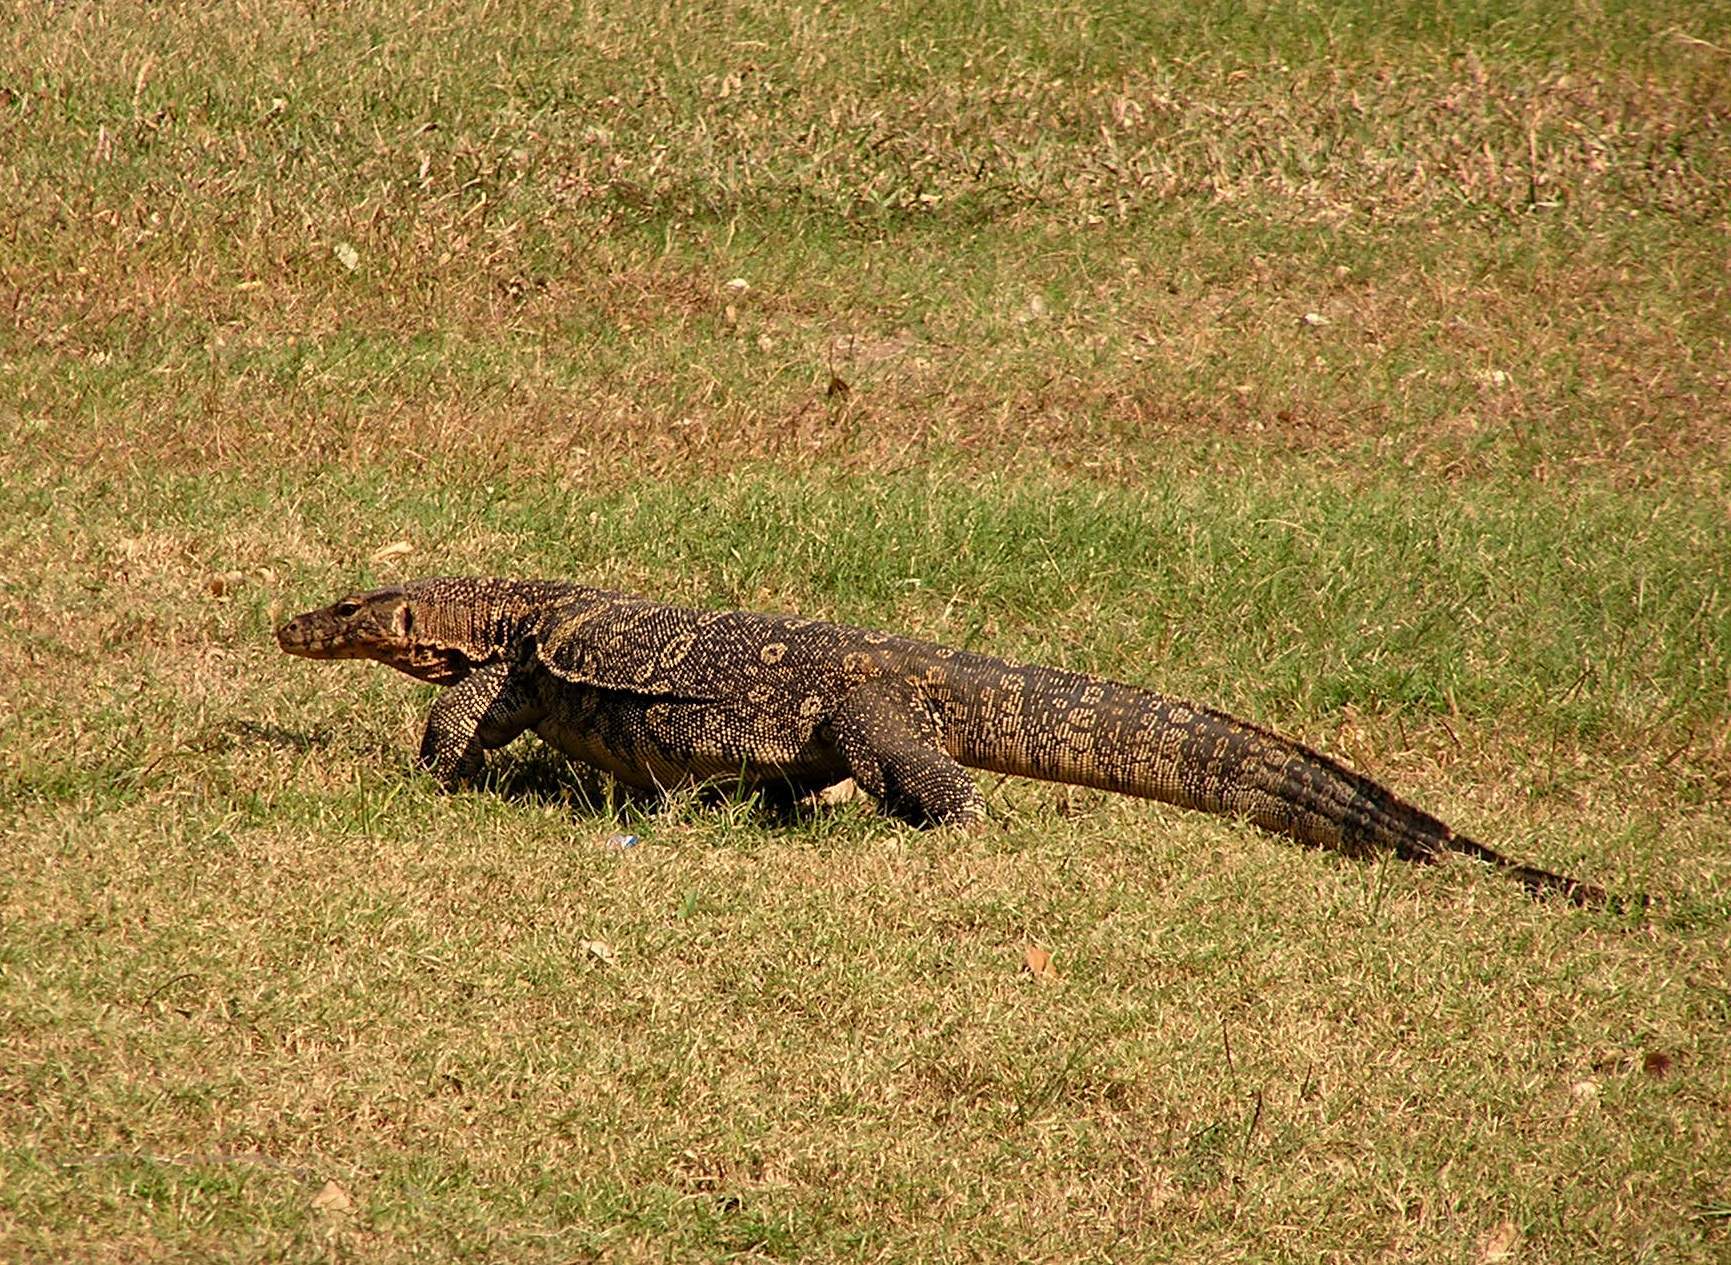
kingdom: Animalia
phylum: Chordata
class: Squamata
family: Varanidae
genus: Varanus
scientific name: Varanus salvator
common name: Common water monitor
